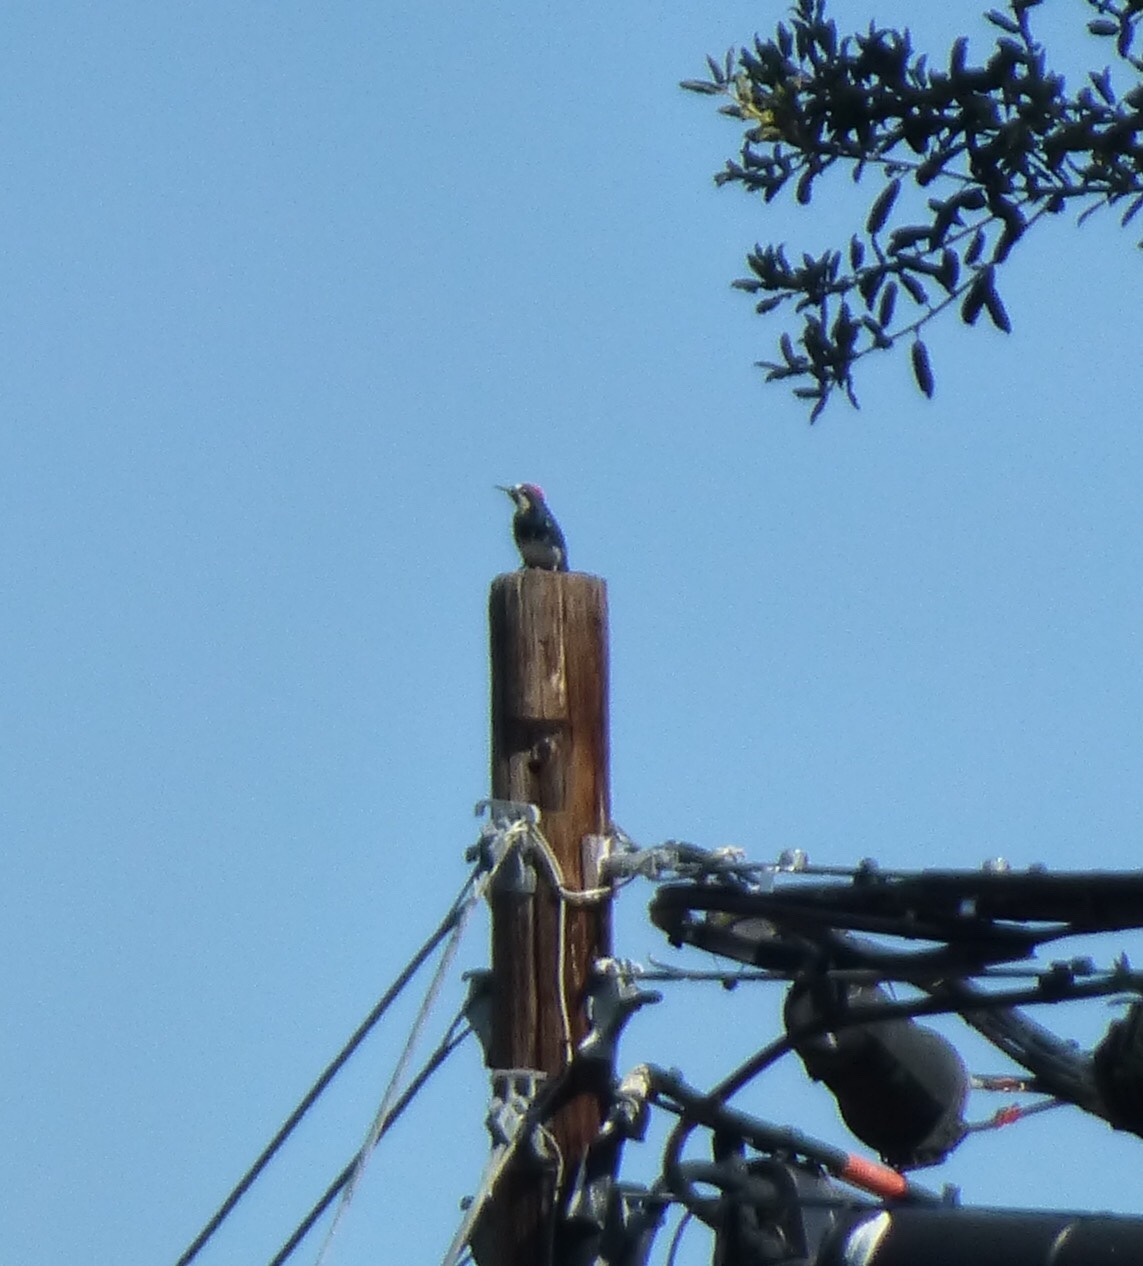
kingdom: Animalia
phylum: Chordata
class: Aves
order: Piciformes
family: Picidae
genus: Melanerpes
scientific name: Melanerpes formicivorus
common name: Acorn woodpecker
